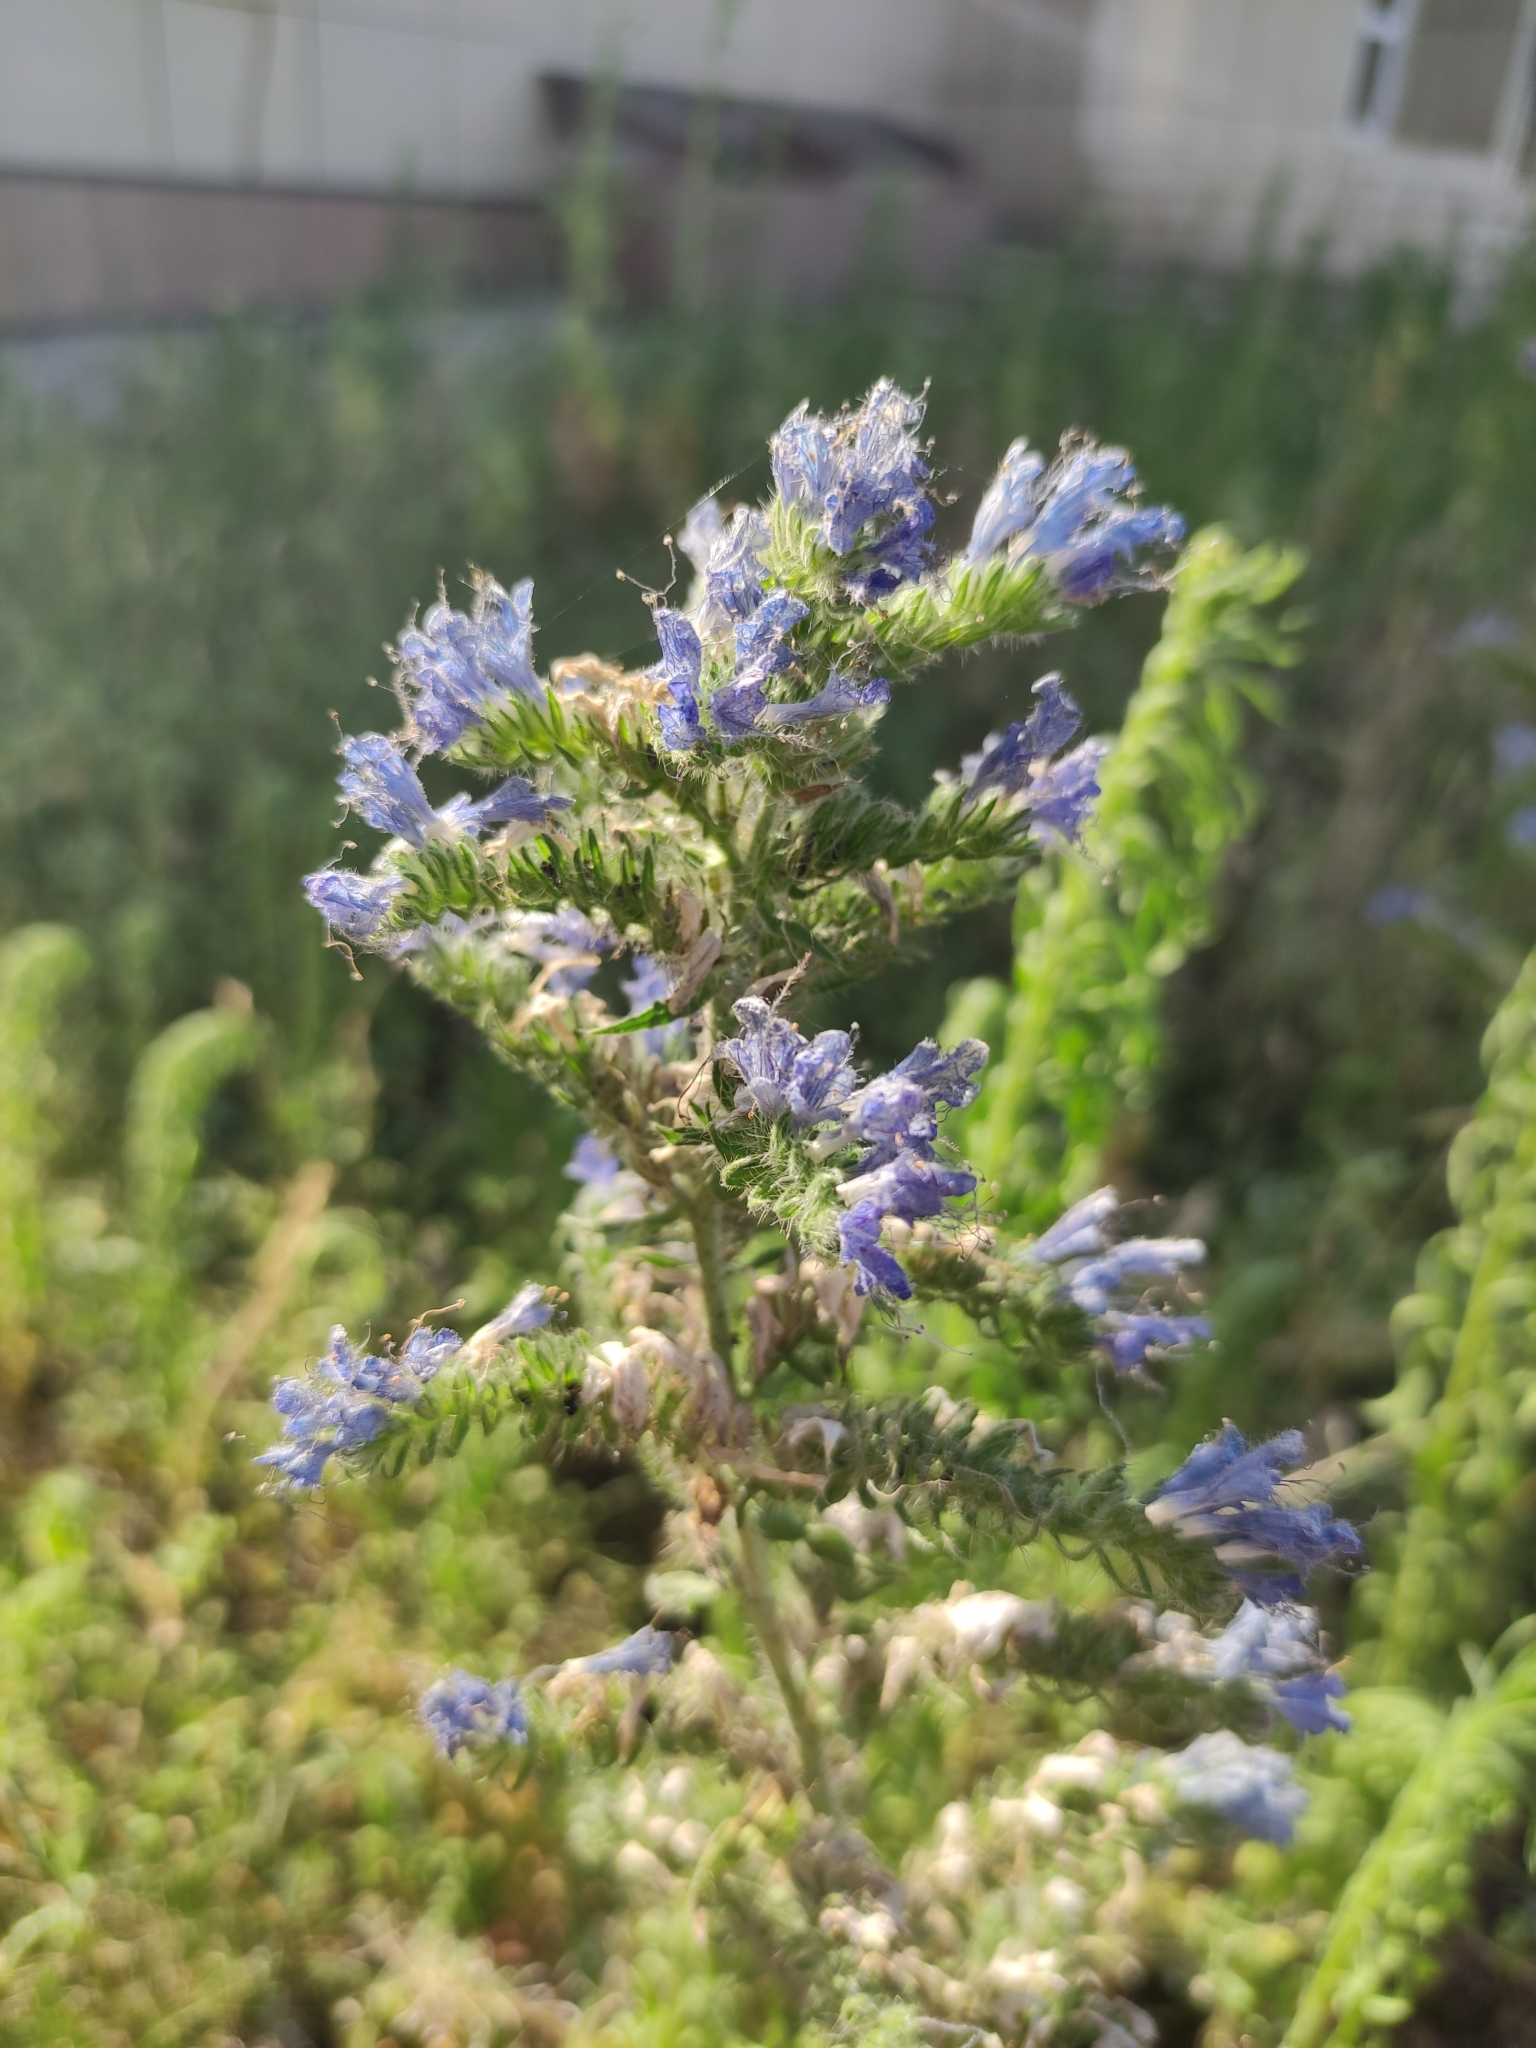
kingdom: Plantae
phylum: Tracheophyta
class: Magnoliopsida
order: Boraginales
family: Boraginaceae
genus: Echium
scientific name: Echium vulgare
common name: Common viper's bugloss
